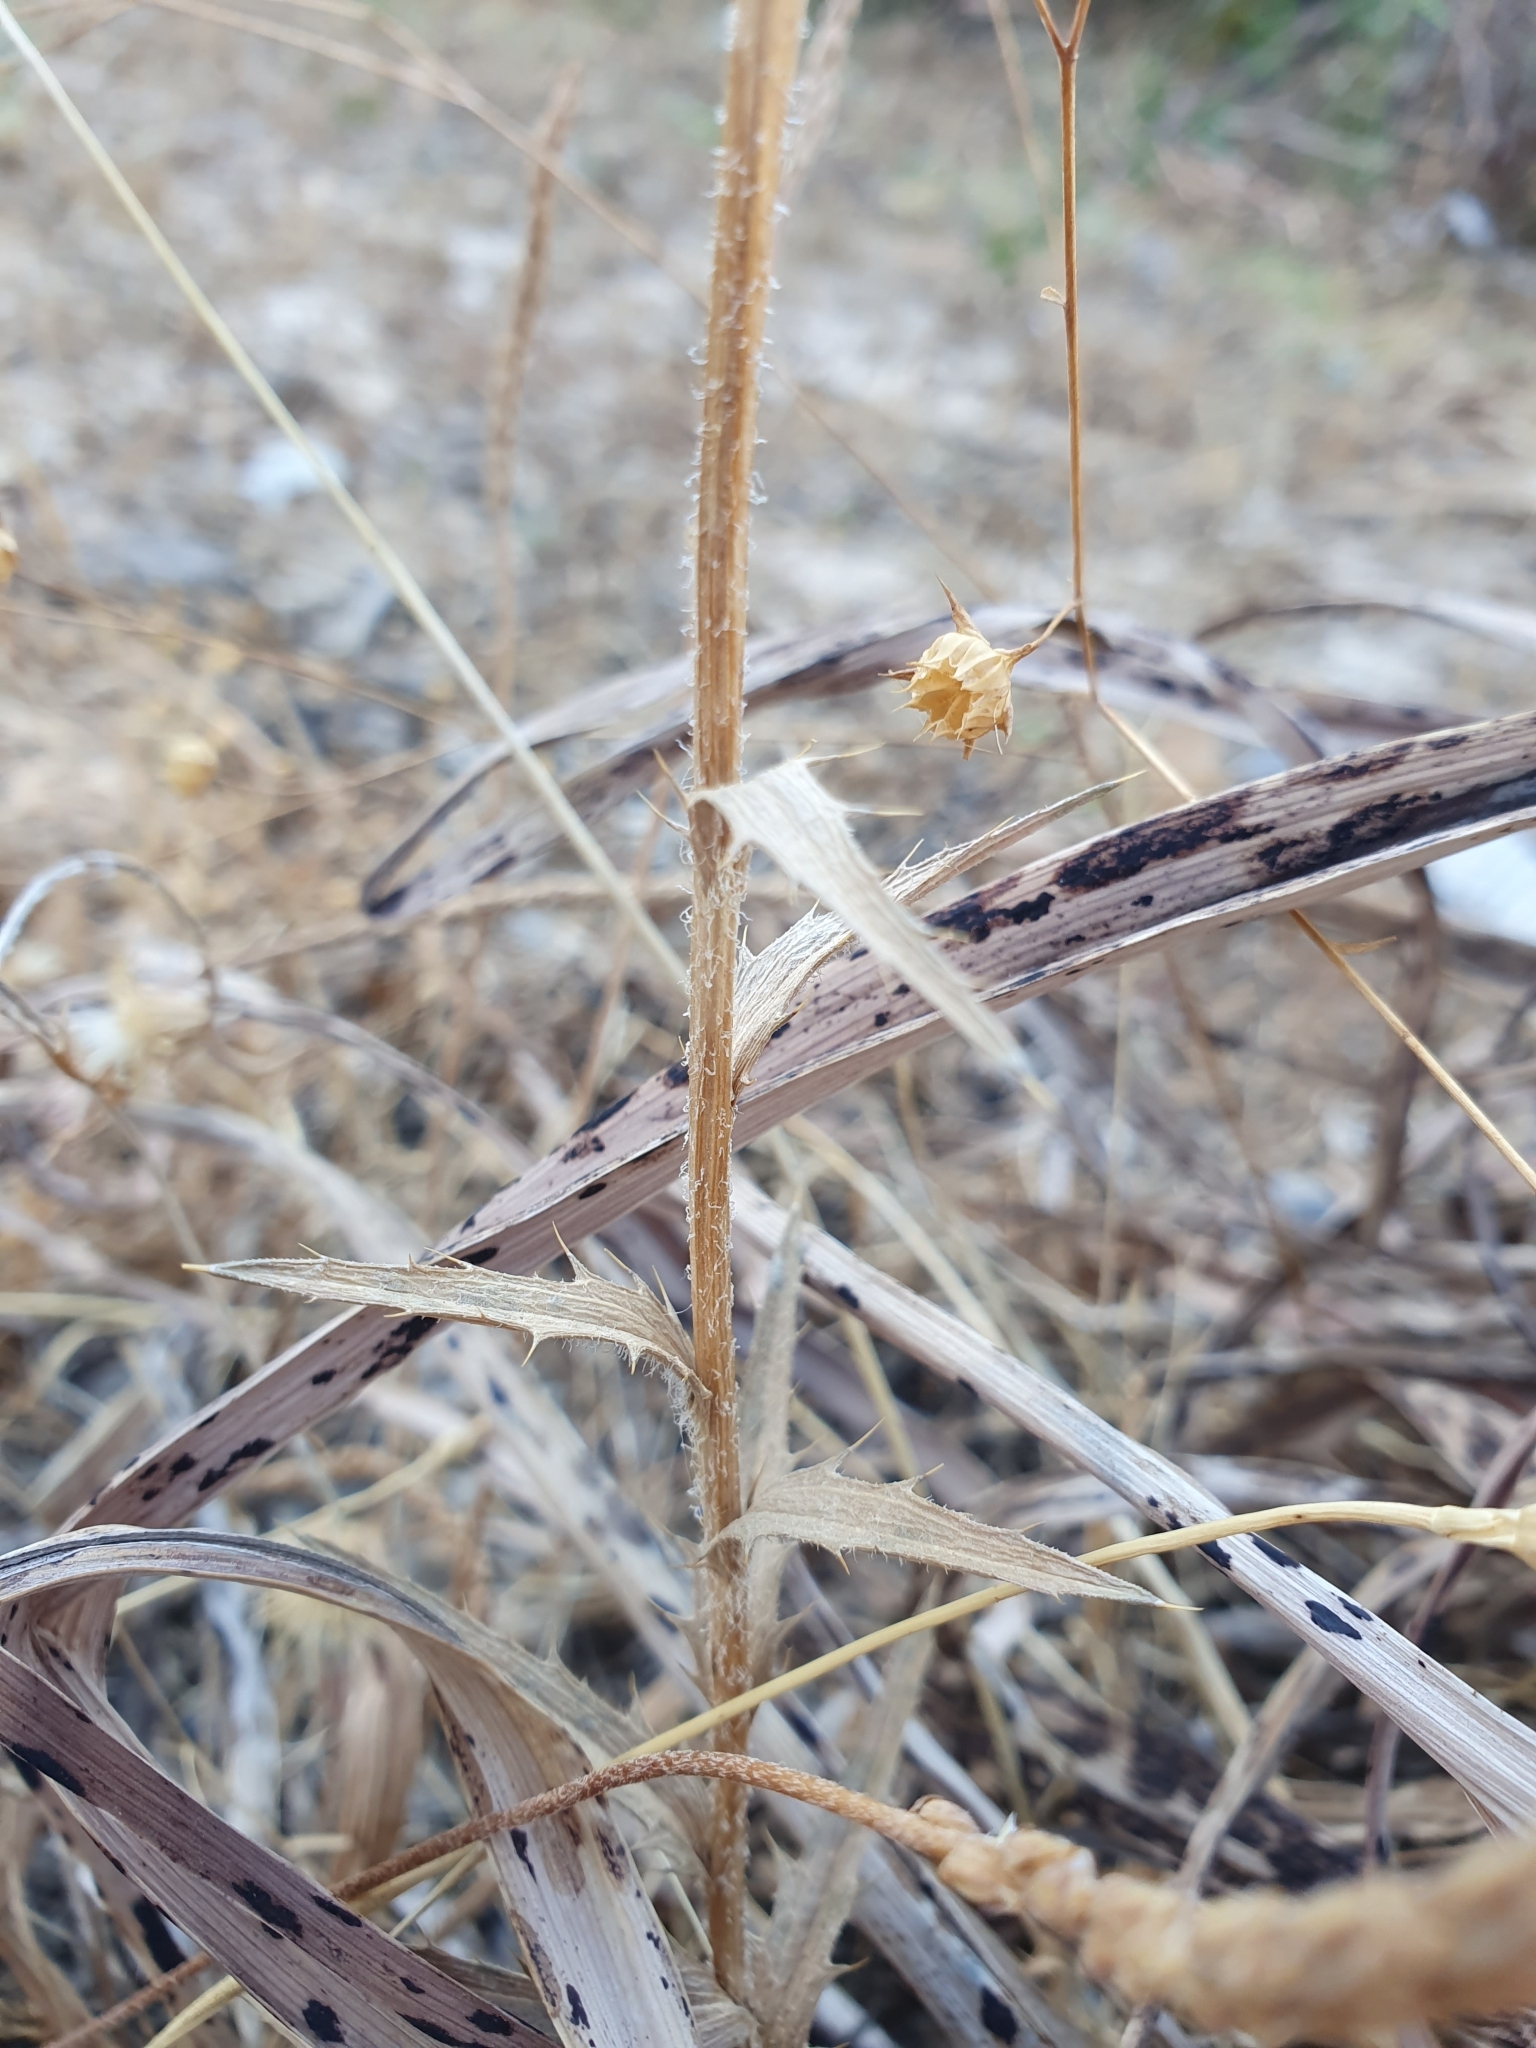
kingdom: Plantae
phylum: Tracheophyta
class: Magnoliopsida
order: Asterales
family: Asteraceae
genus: Carthamus
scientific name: Carthamus multifidus
